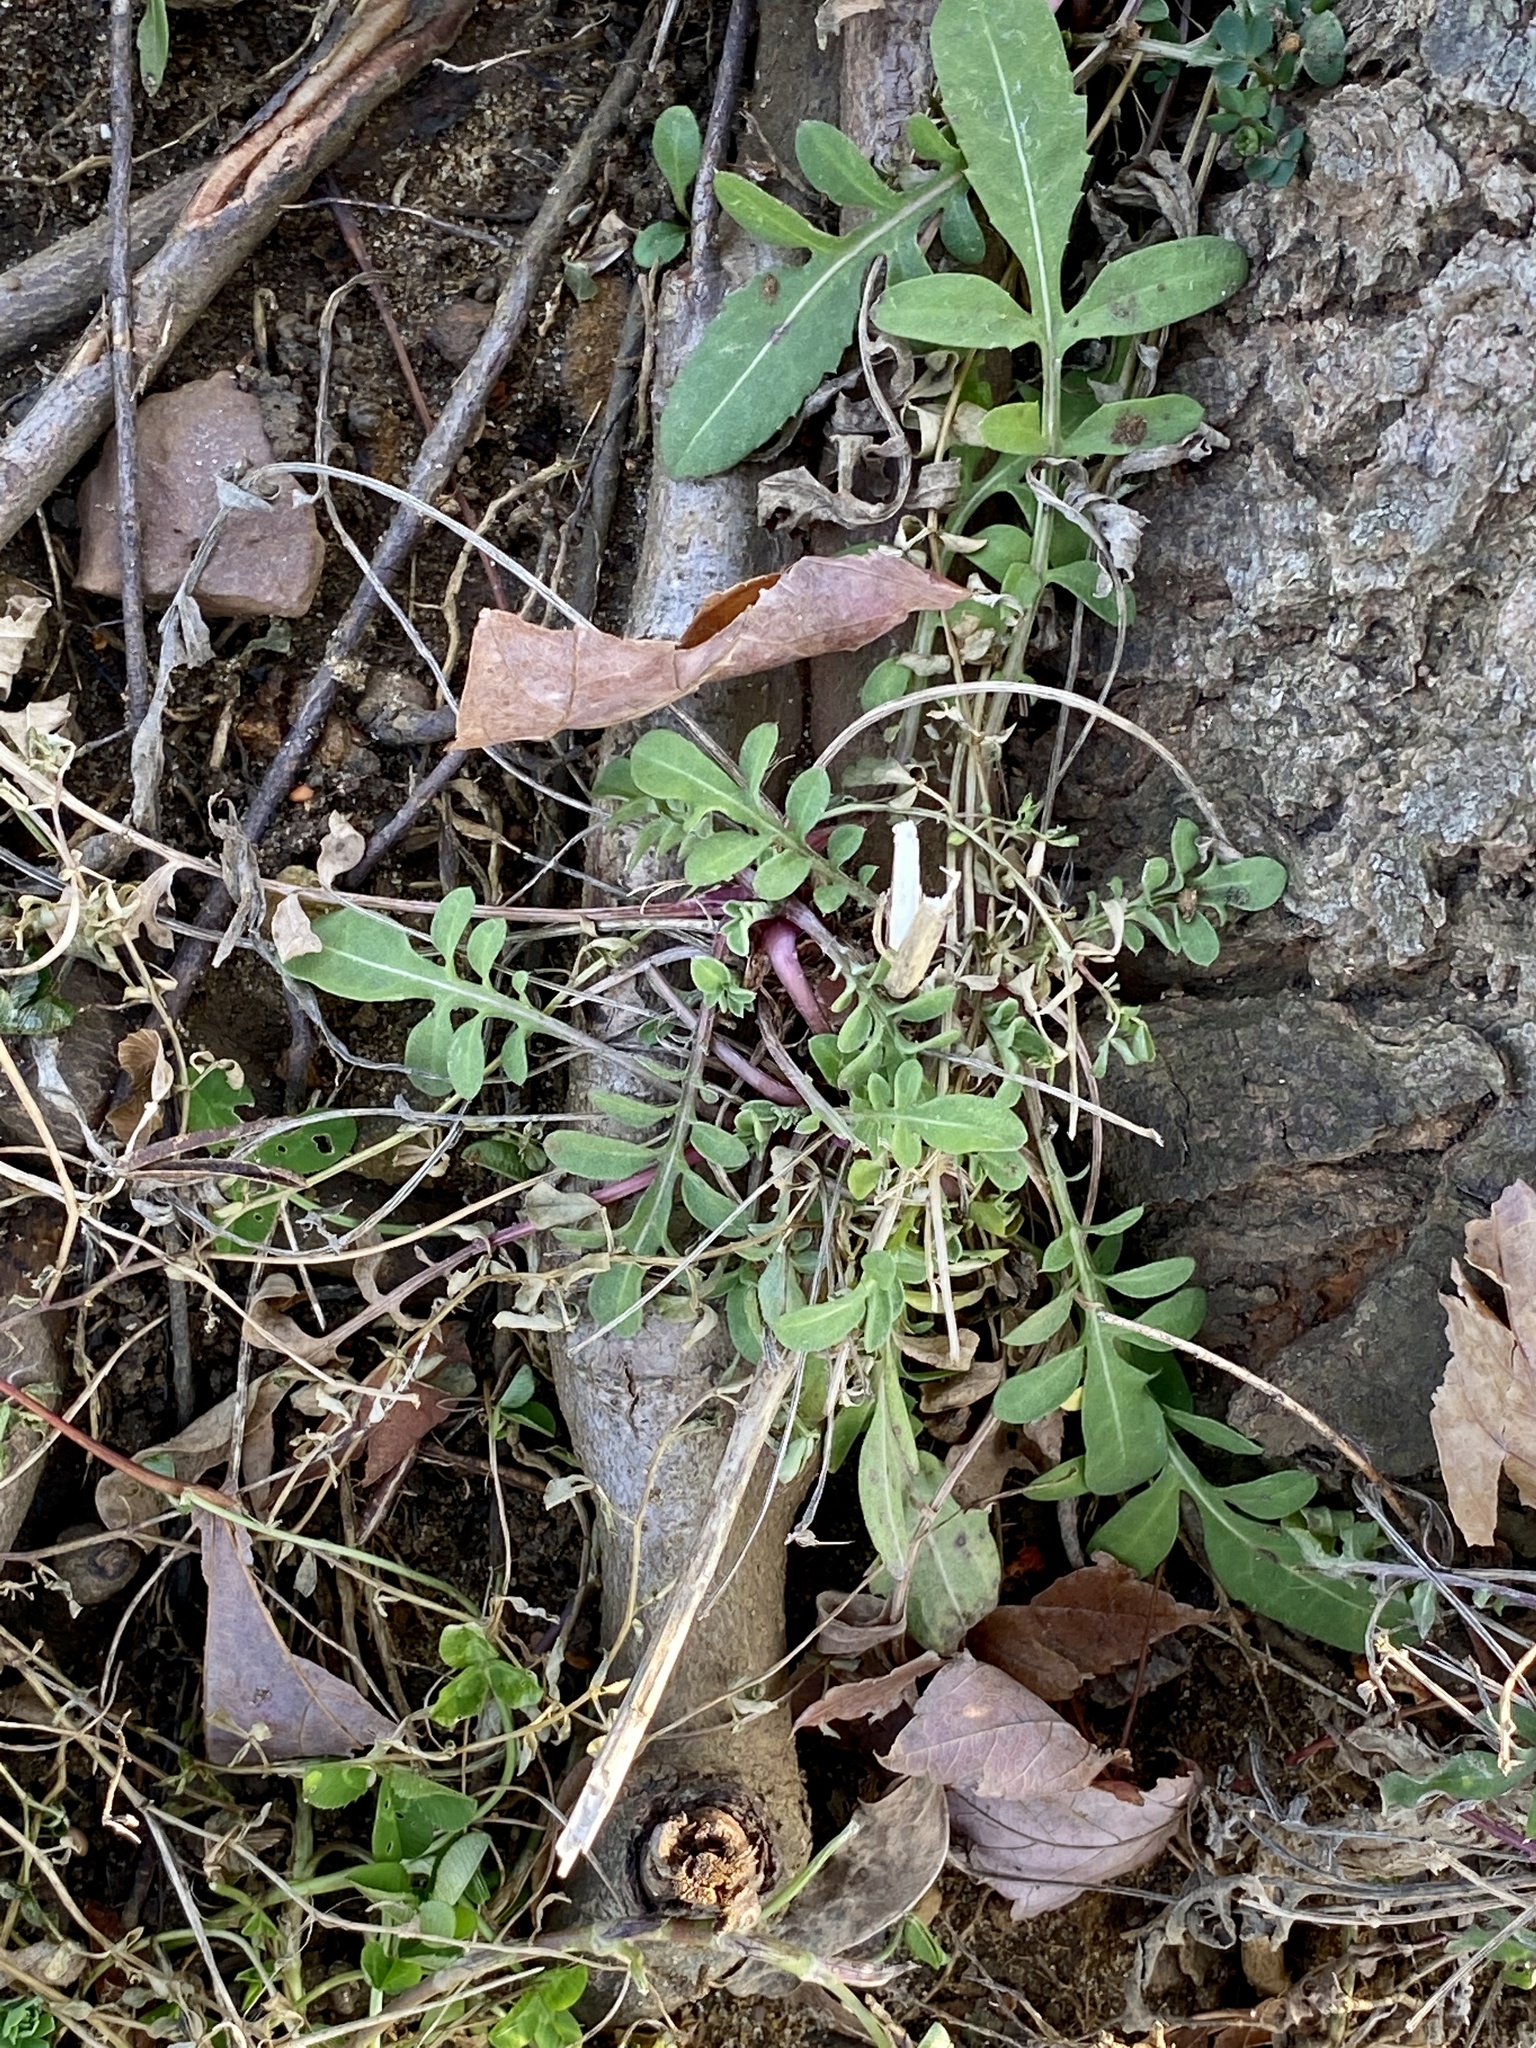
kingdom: Plantae
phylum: Tracheophyta
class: Magnoliopsida
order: Asterales
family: Asteraceae
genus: Centaurea
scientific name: Centaurea stoebe
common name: Spotted knapweed
